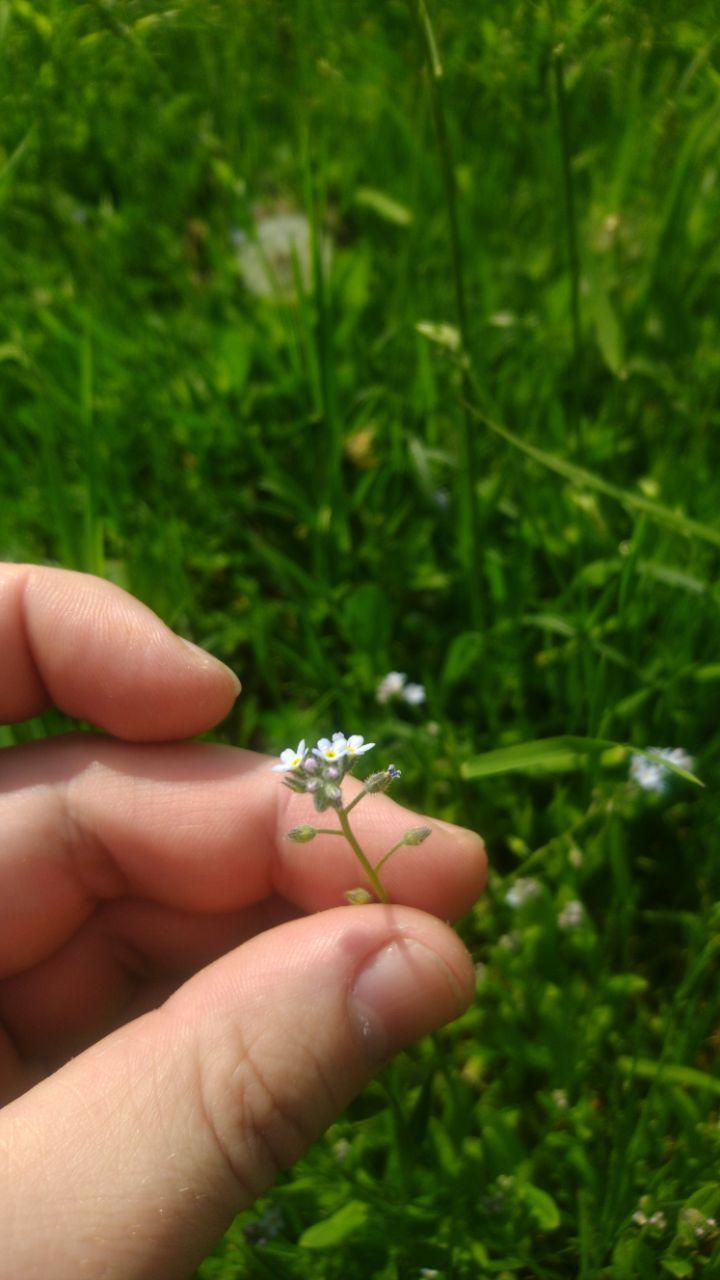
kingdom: Plantae
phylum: Tracheophyta
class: Magnoliopsida
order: Boraginales
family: Boraginaceae
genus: Myosotis
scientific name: Myosotis arvensis
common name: Field forget-me-not
